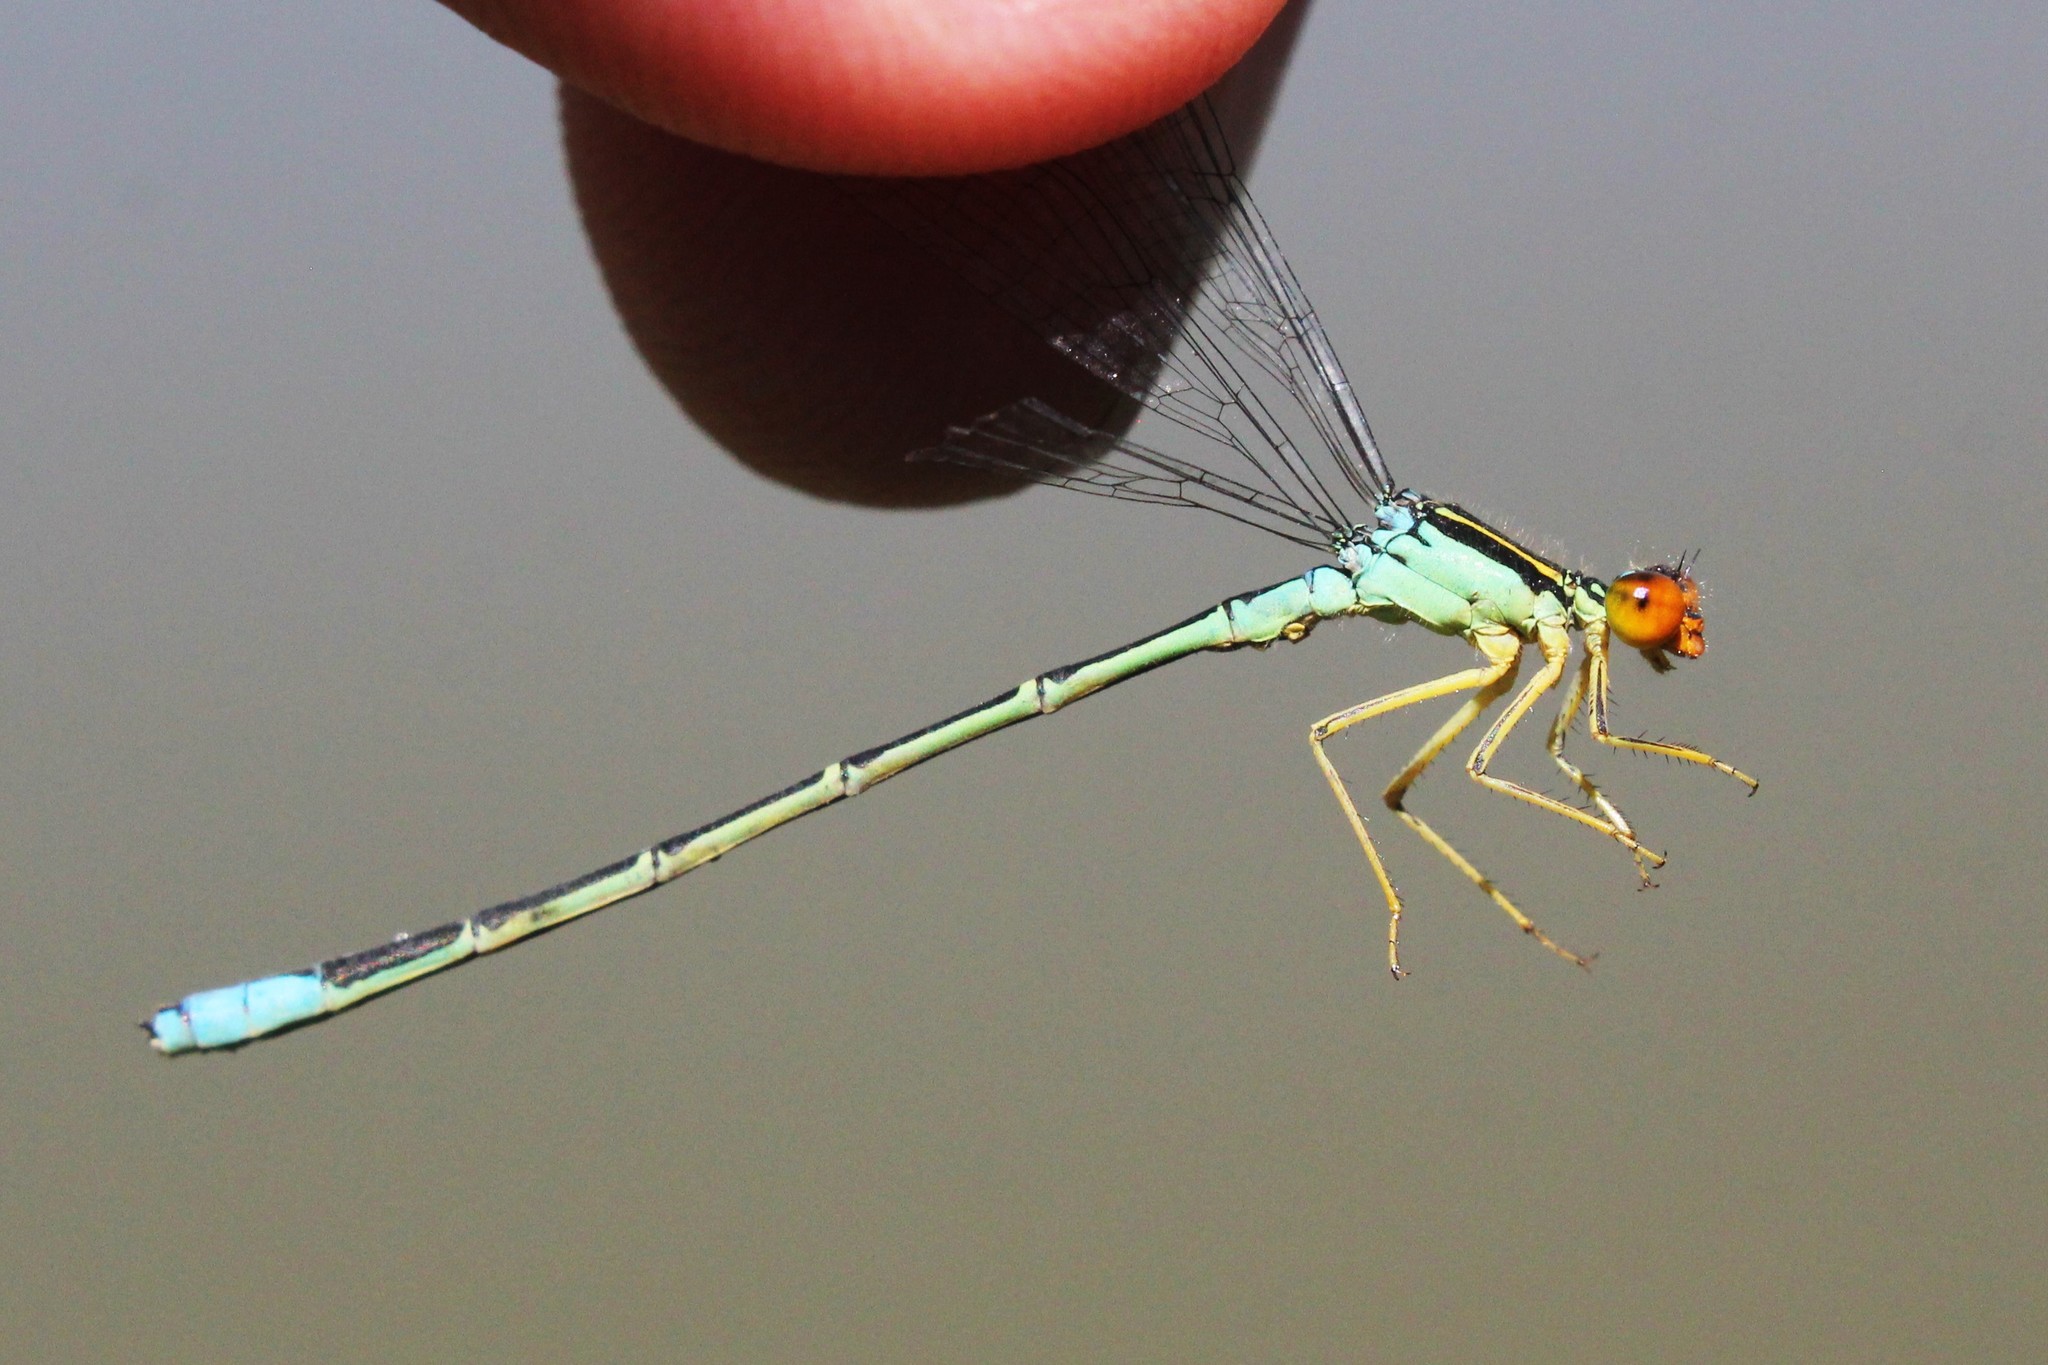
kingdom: Animalia
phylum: Arthropoda
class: Insecta
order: Odonata
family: Coenagrionidae
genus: Enallagma
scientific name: Enallagma antennatum
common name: Rainbow bluet
